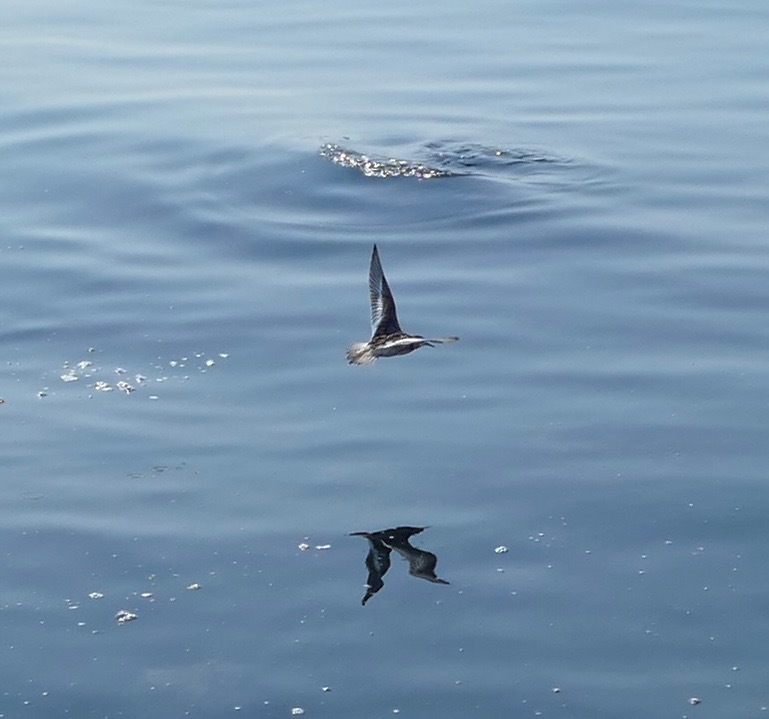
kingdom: Animalia
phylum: Chordata
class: Aves
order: Charadriiformes
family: Scolopacidae
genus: Phalaropus
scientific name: Phalaropus lobatus
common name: Red-necked phalarope
